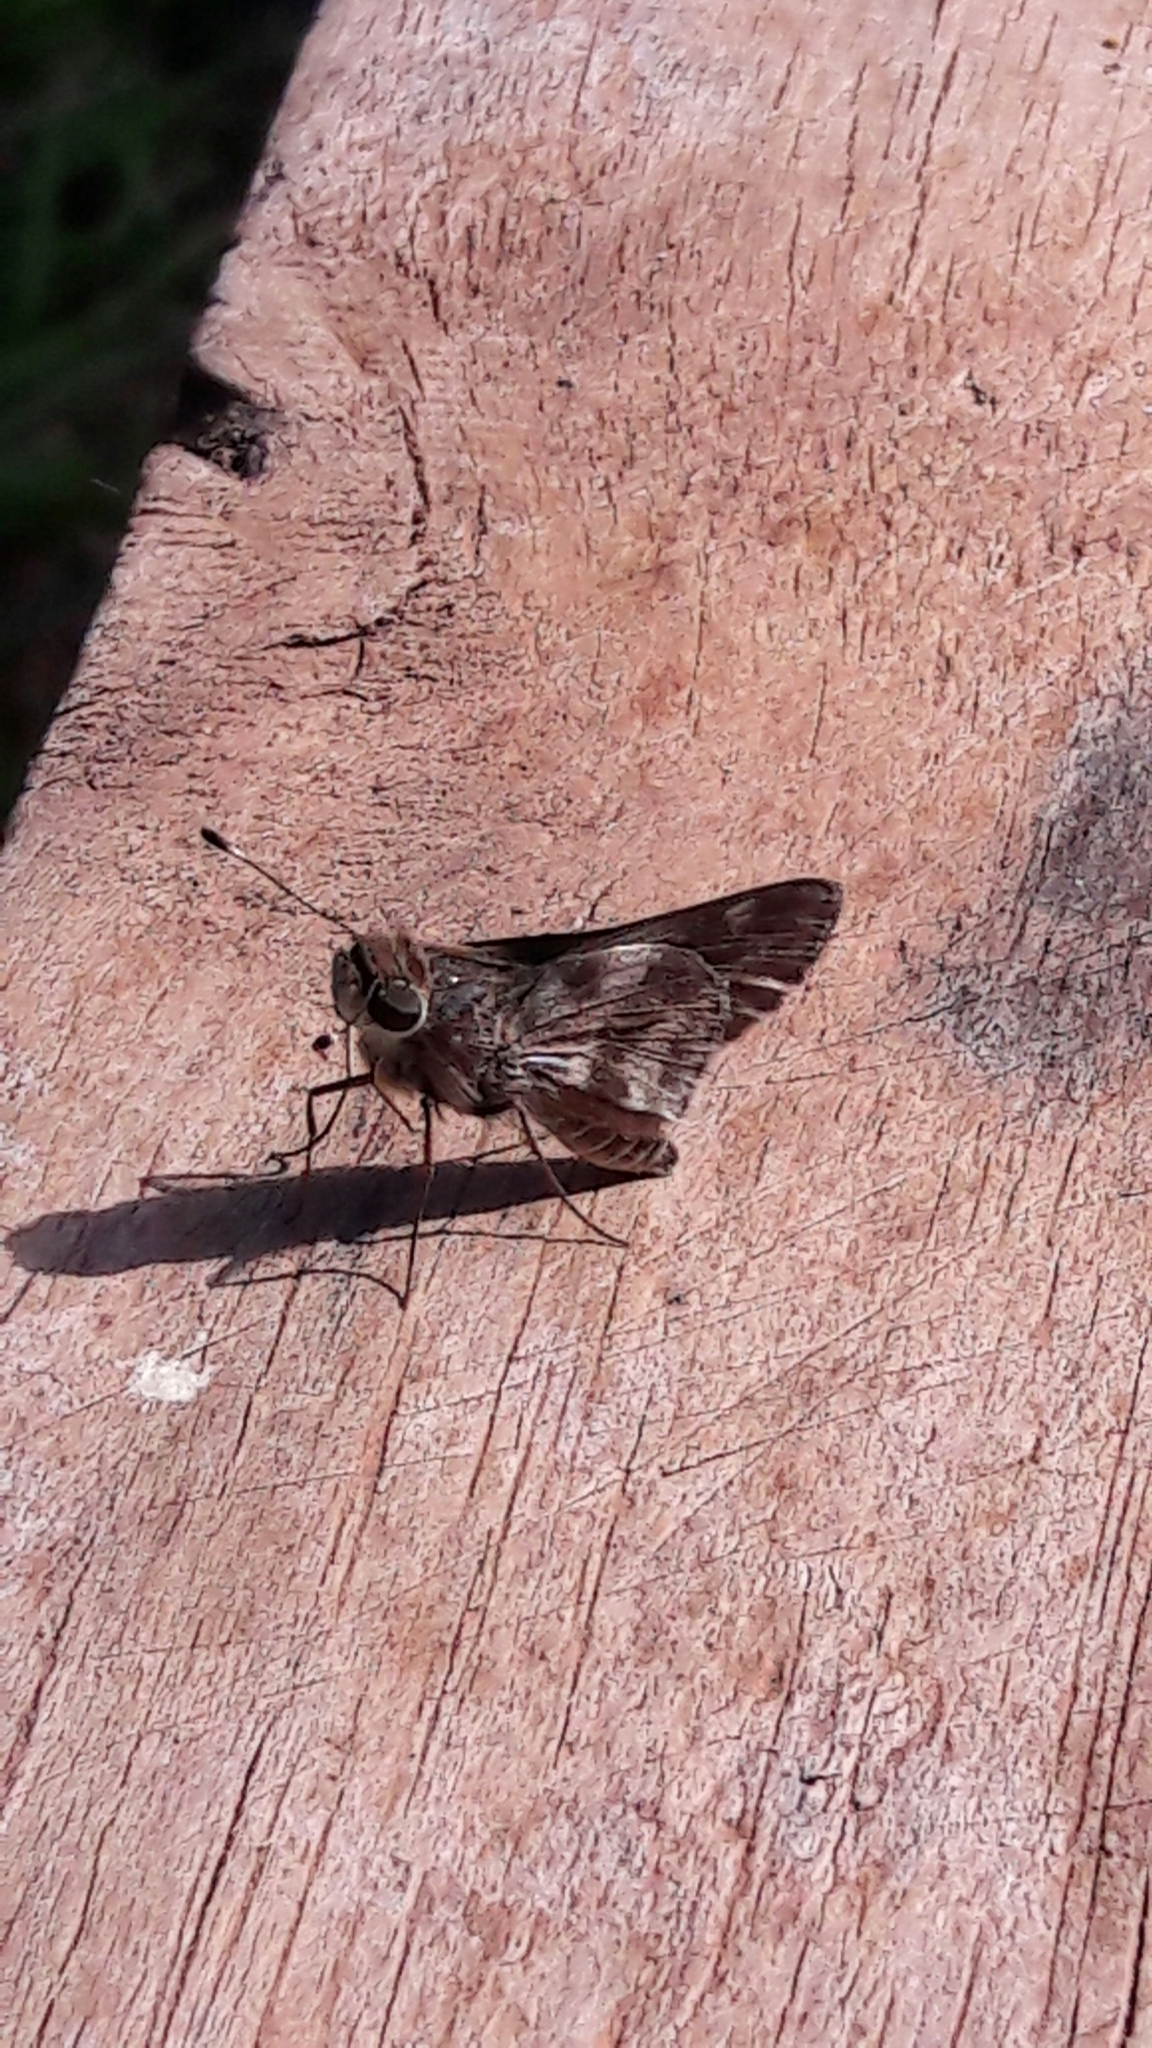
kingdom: Animalia
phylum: Arthropoda
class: Insecta
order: Lepidoptera
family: Hesperiidae
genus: Pompeius
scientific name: Pompeius pompeius
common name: Pompeius skipper
